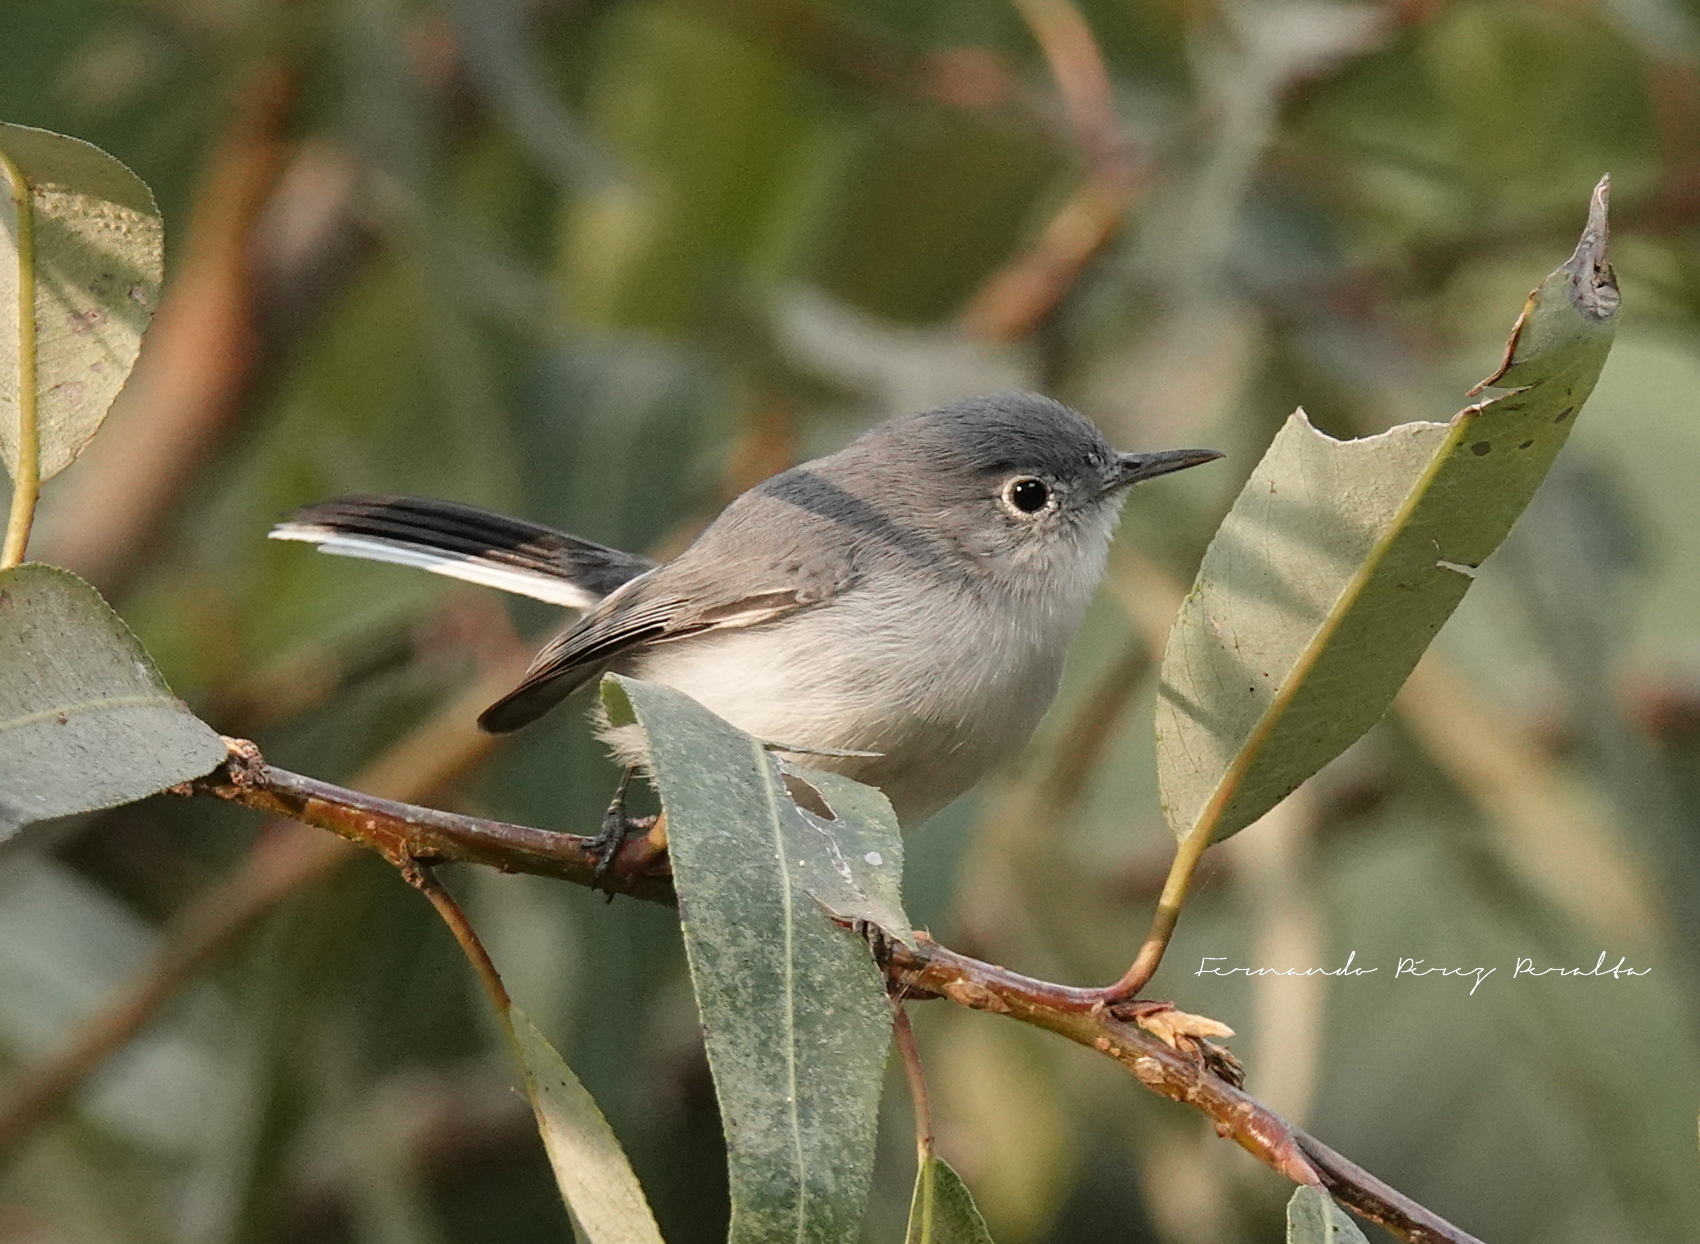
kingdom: Animalia
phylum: Chordata
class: Aves
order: Passeriformes
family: Polioptilidae
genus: Polioptila
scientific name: Polioptila caerulea
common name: Blue-gray gnatcatcher
